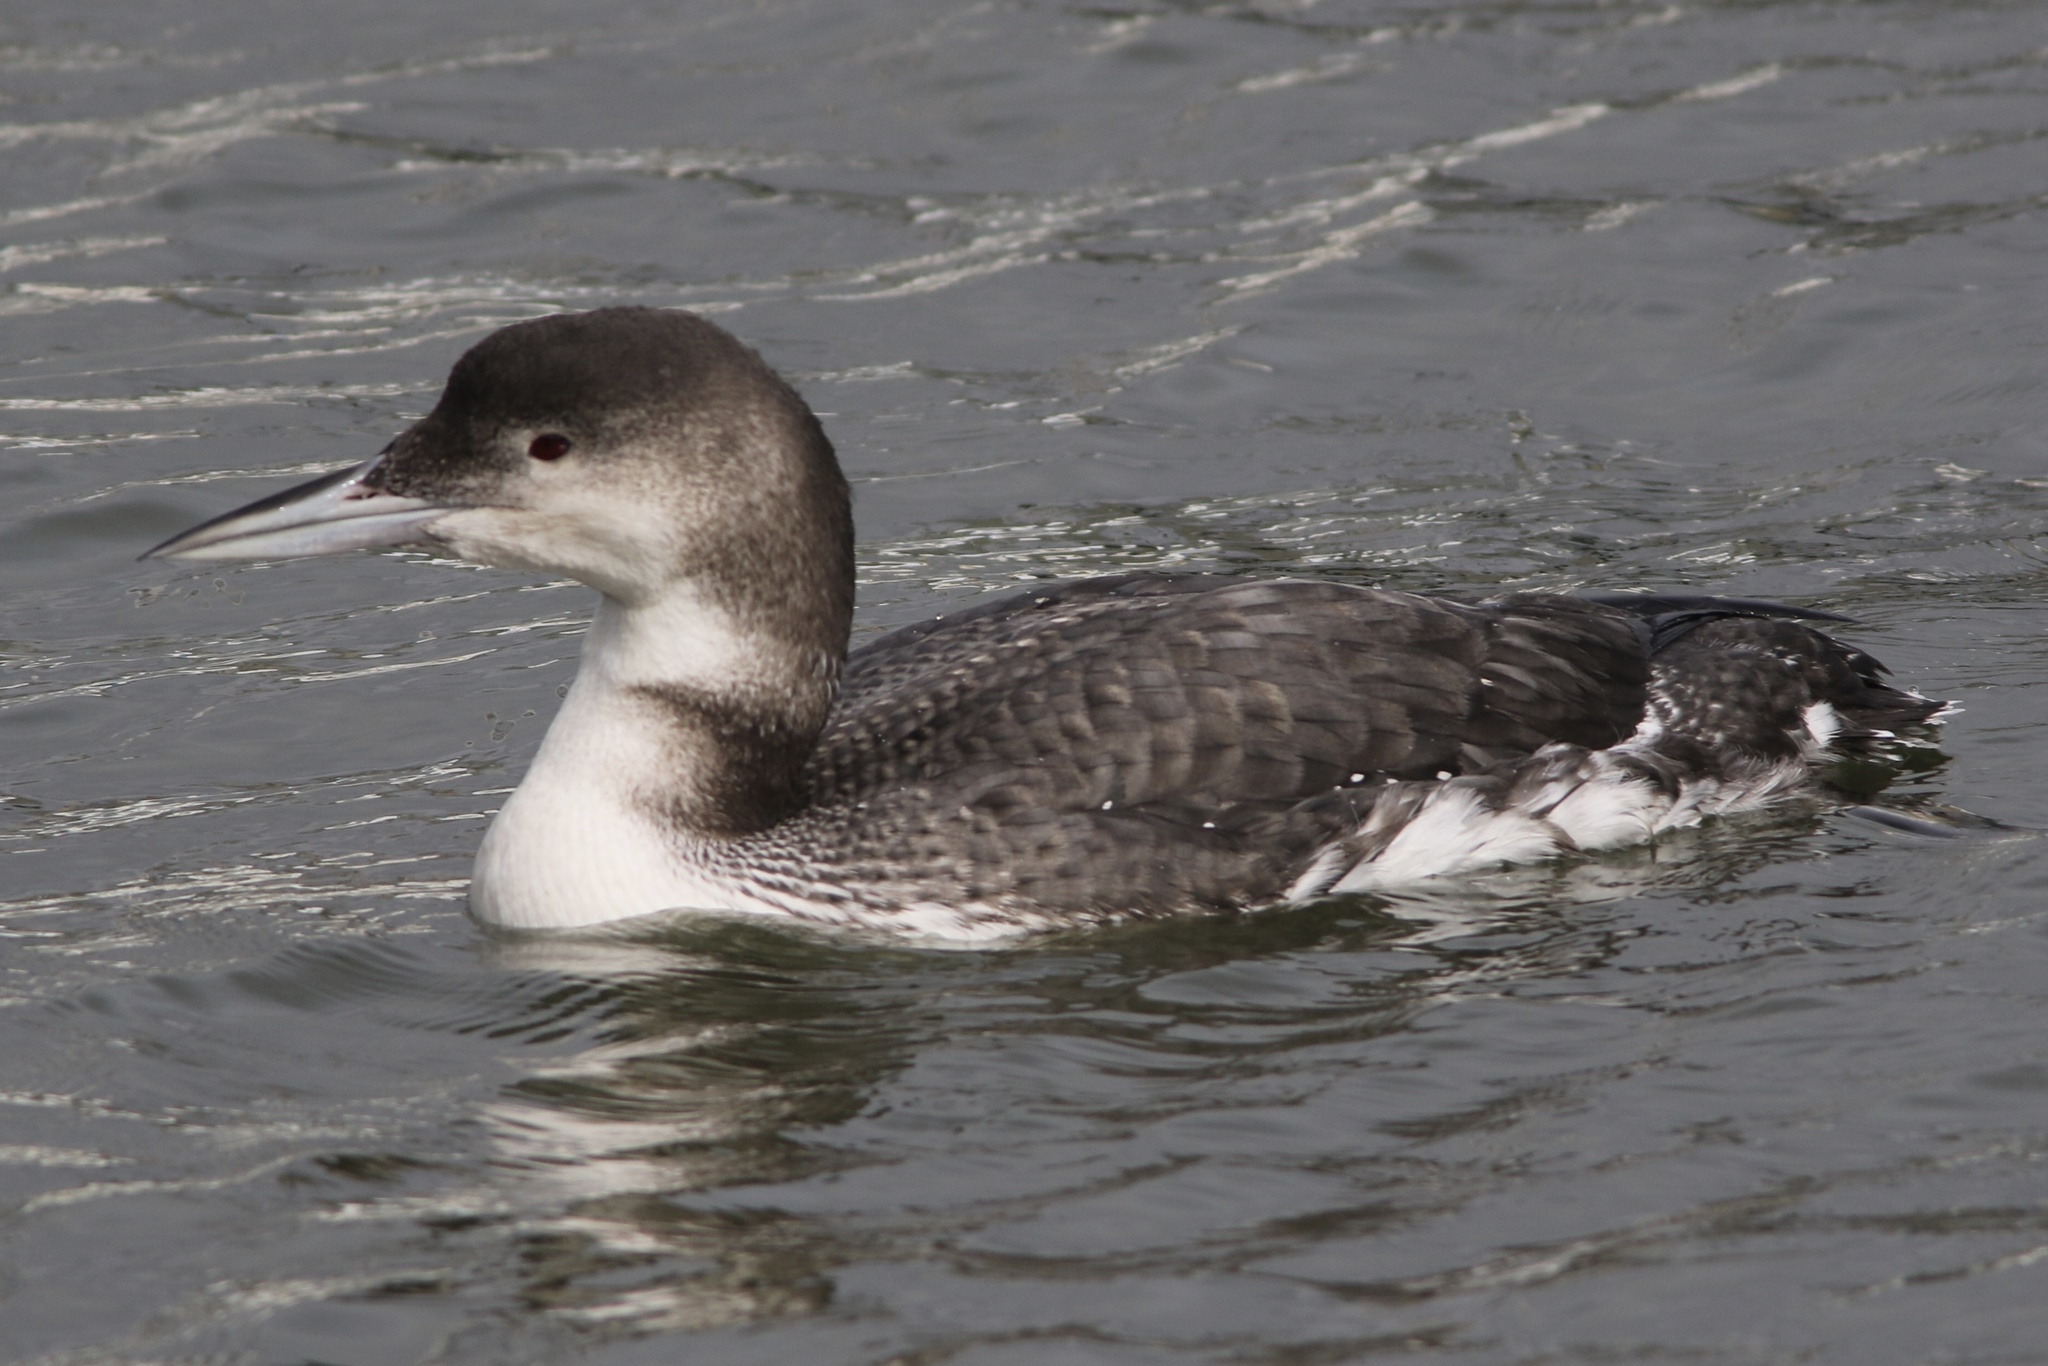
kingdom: Animalia
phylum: Chordata
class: Aves
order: Gaviiformes
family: Gaviidae
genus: Gavia
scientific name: Gavia immer
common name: Common loon
